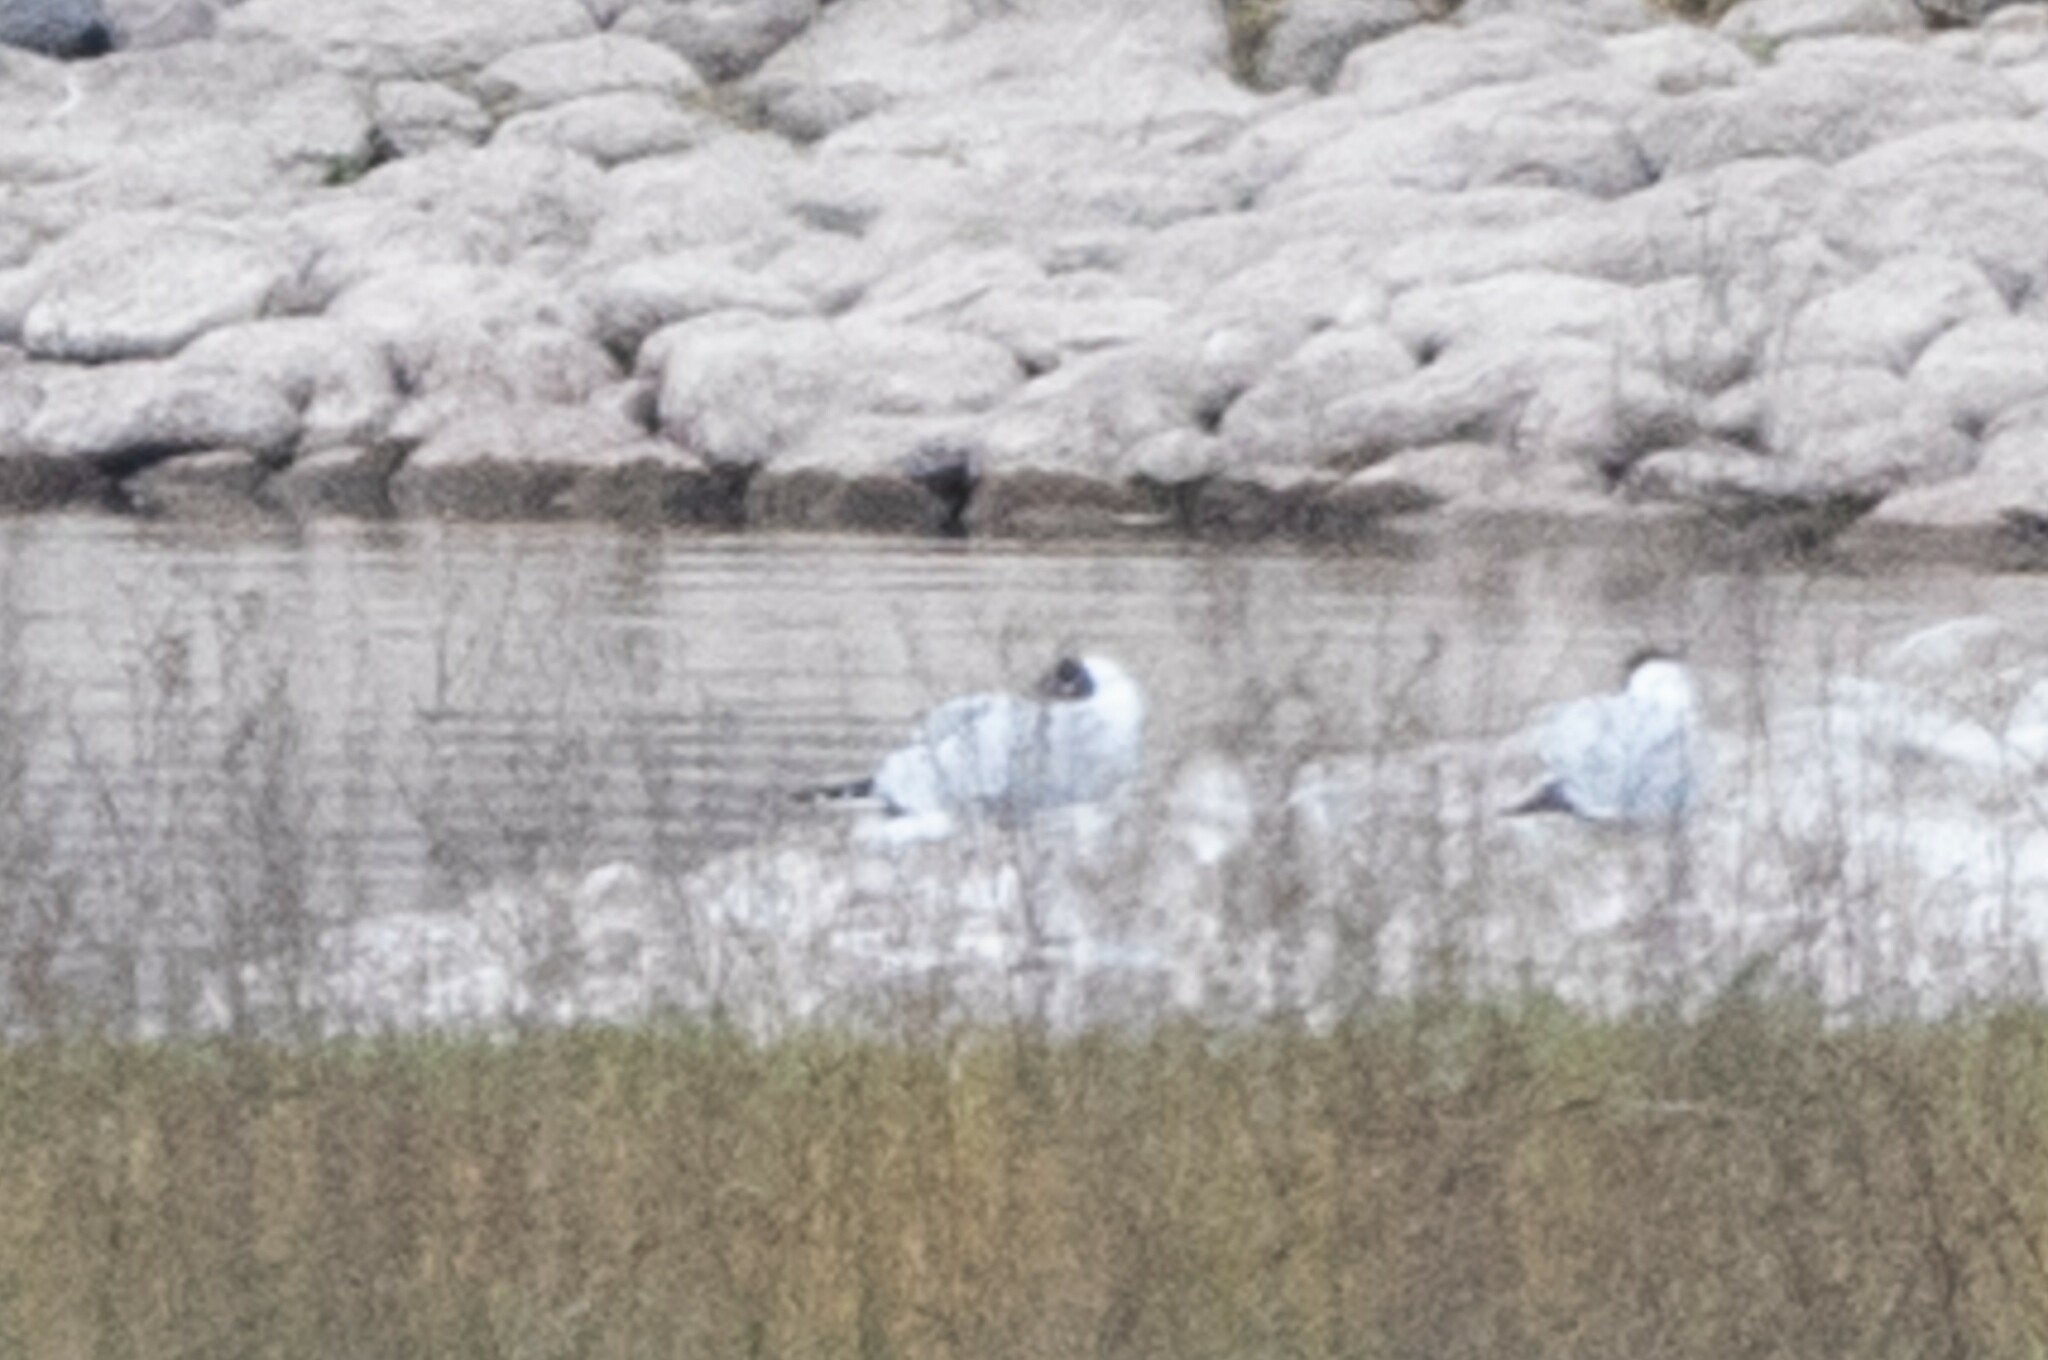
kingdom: Animalia
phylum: Chordata
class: Aves
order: Charadriiformes
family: Laridae
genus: Chroicocephalus
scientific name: Chroicocephalus serranus
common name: Andean gull
